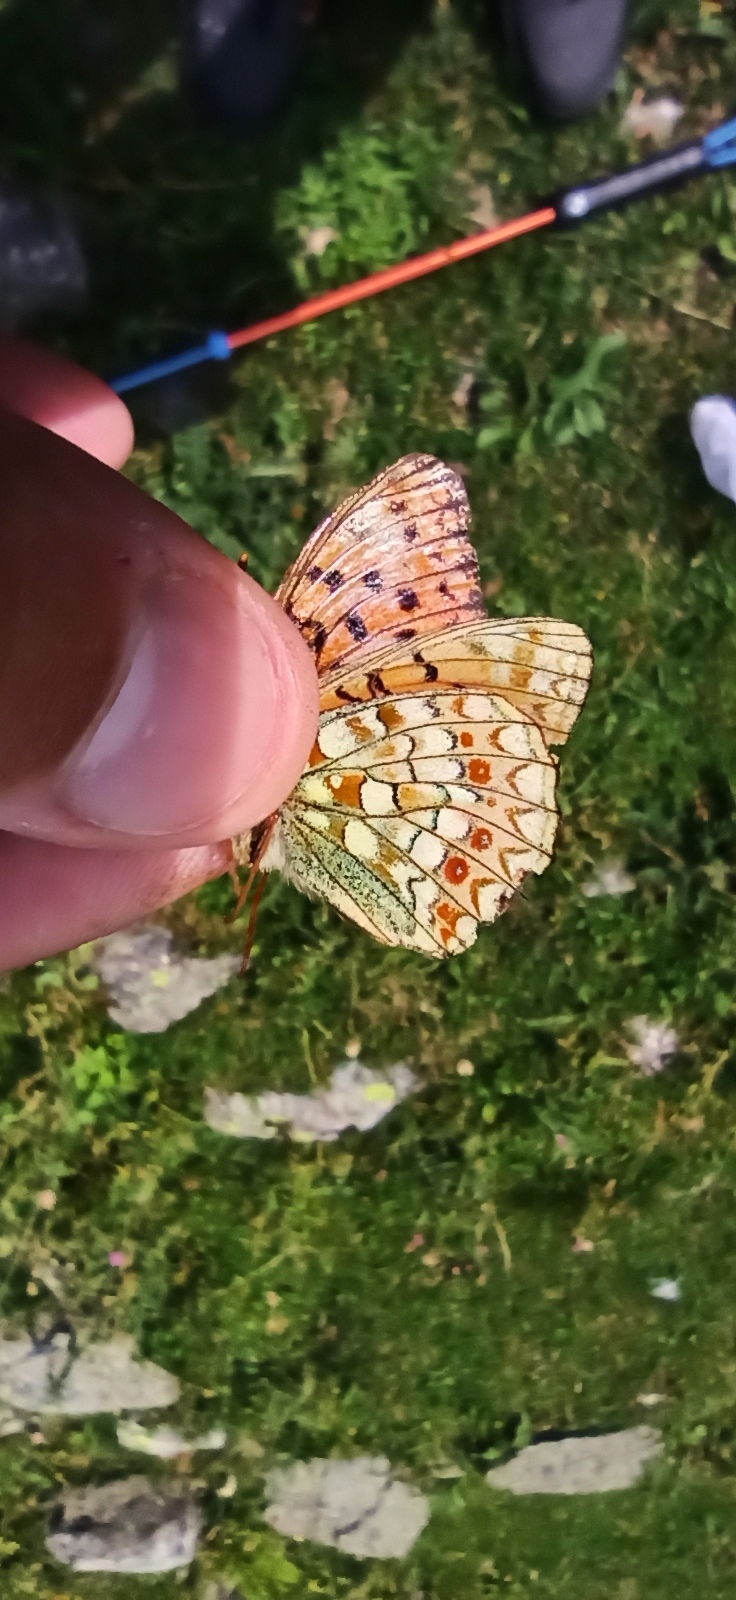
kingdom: Animalia
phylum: Arthropoda
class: Insecta
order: Lepidoptera
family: Nymphalidae
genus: Fabriciana
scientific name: Fabriciana niobe
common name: Niobe fritillary
